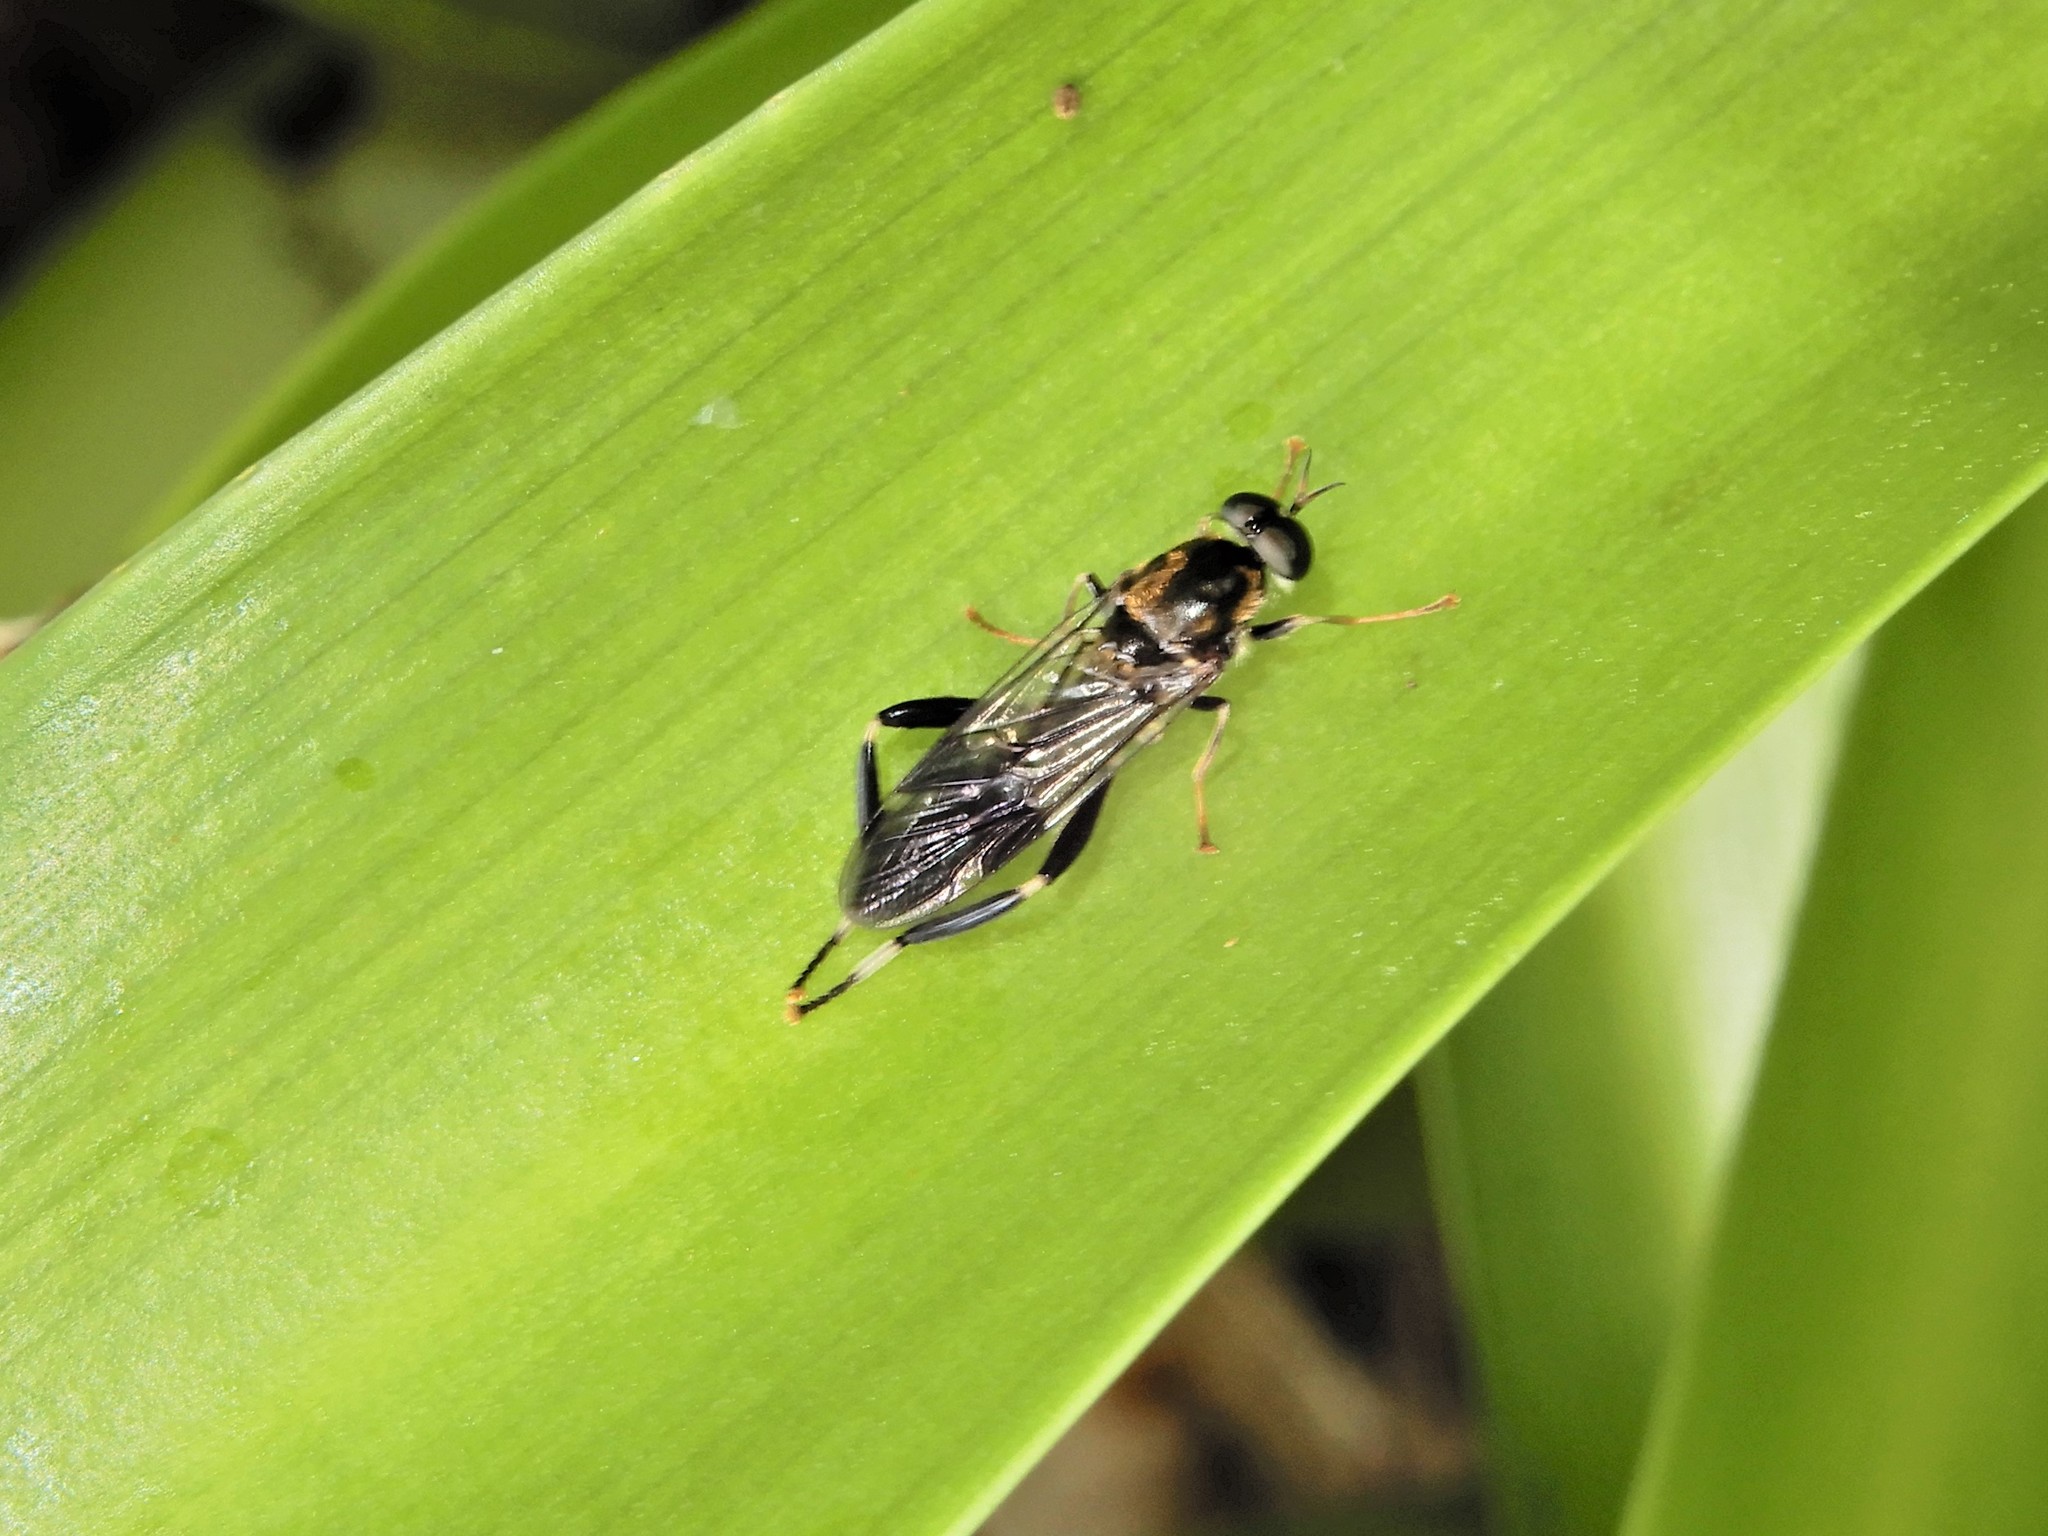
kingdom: Animalia
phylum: Arthropoda
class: Insecta
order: Diptera
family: Stratiomyidae
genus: Exaireta
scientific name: Exaireta spinigera
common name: Blue soldier fly
